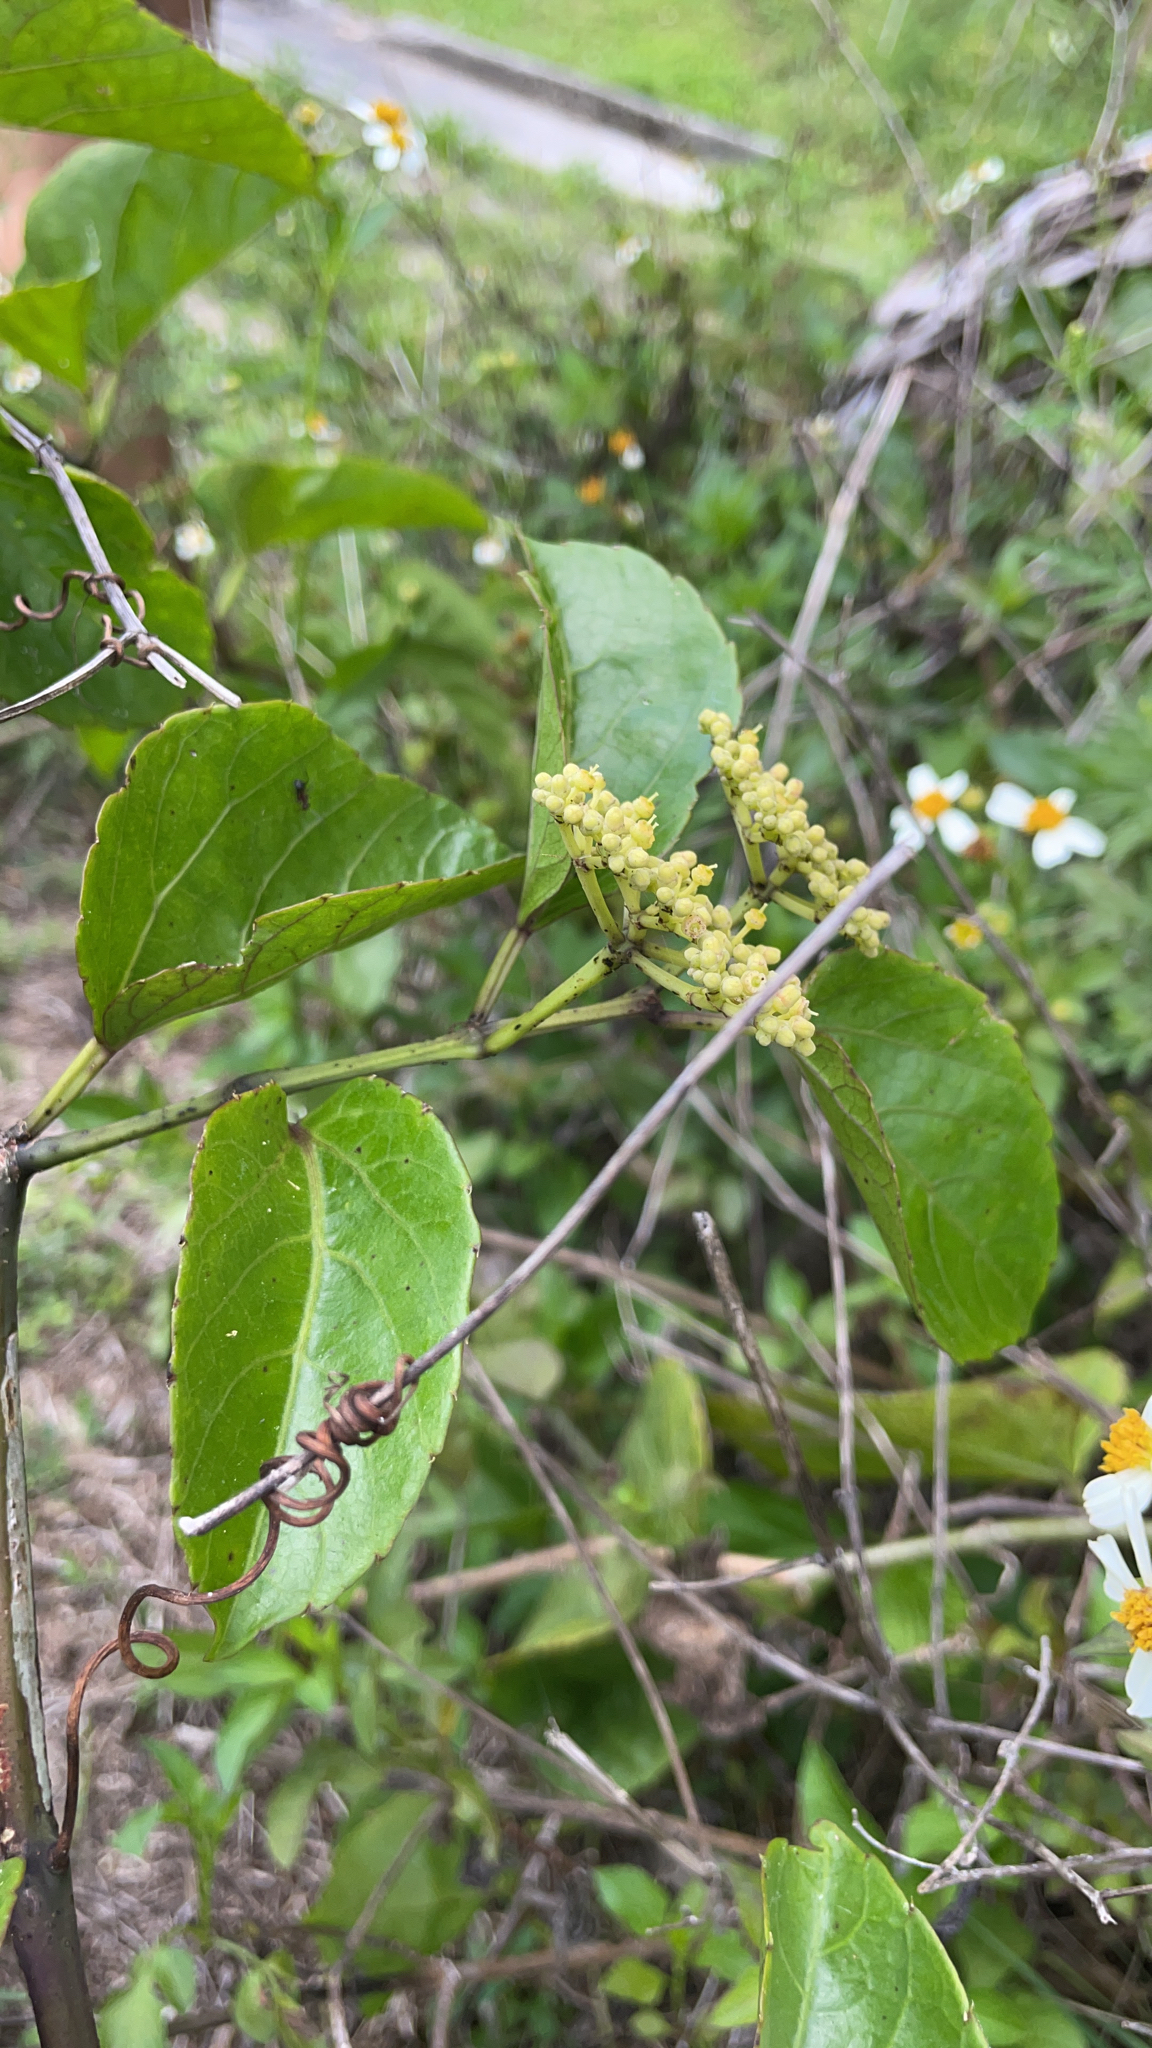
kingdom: Plantae
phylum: Tracheophyta
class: Magnoliopsida
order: Vitales
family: Vitaceae
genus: Cissus
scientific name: Cissus verticillata
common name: Princess vine
